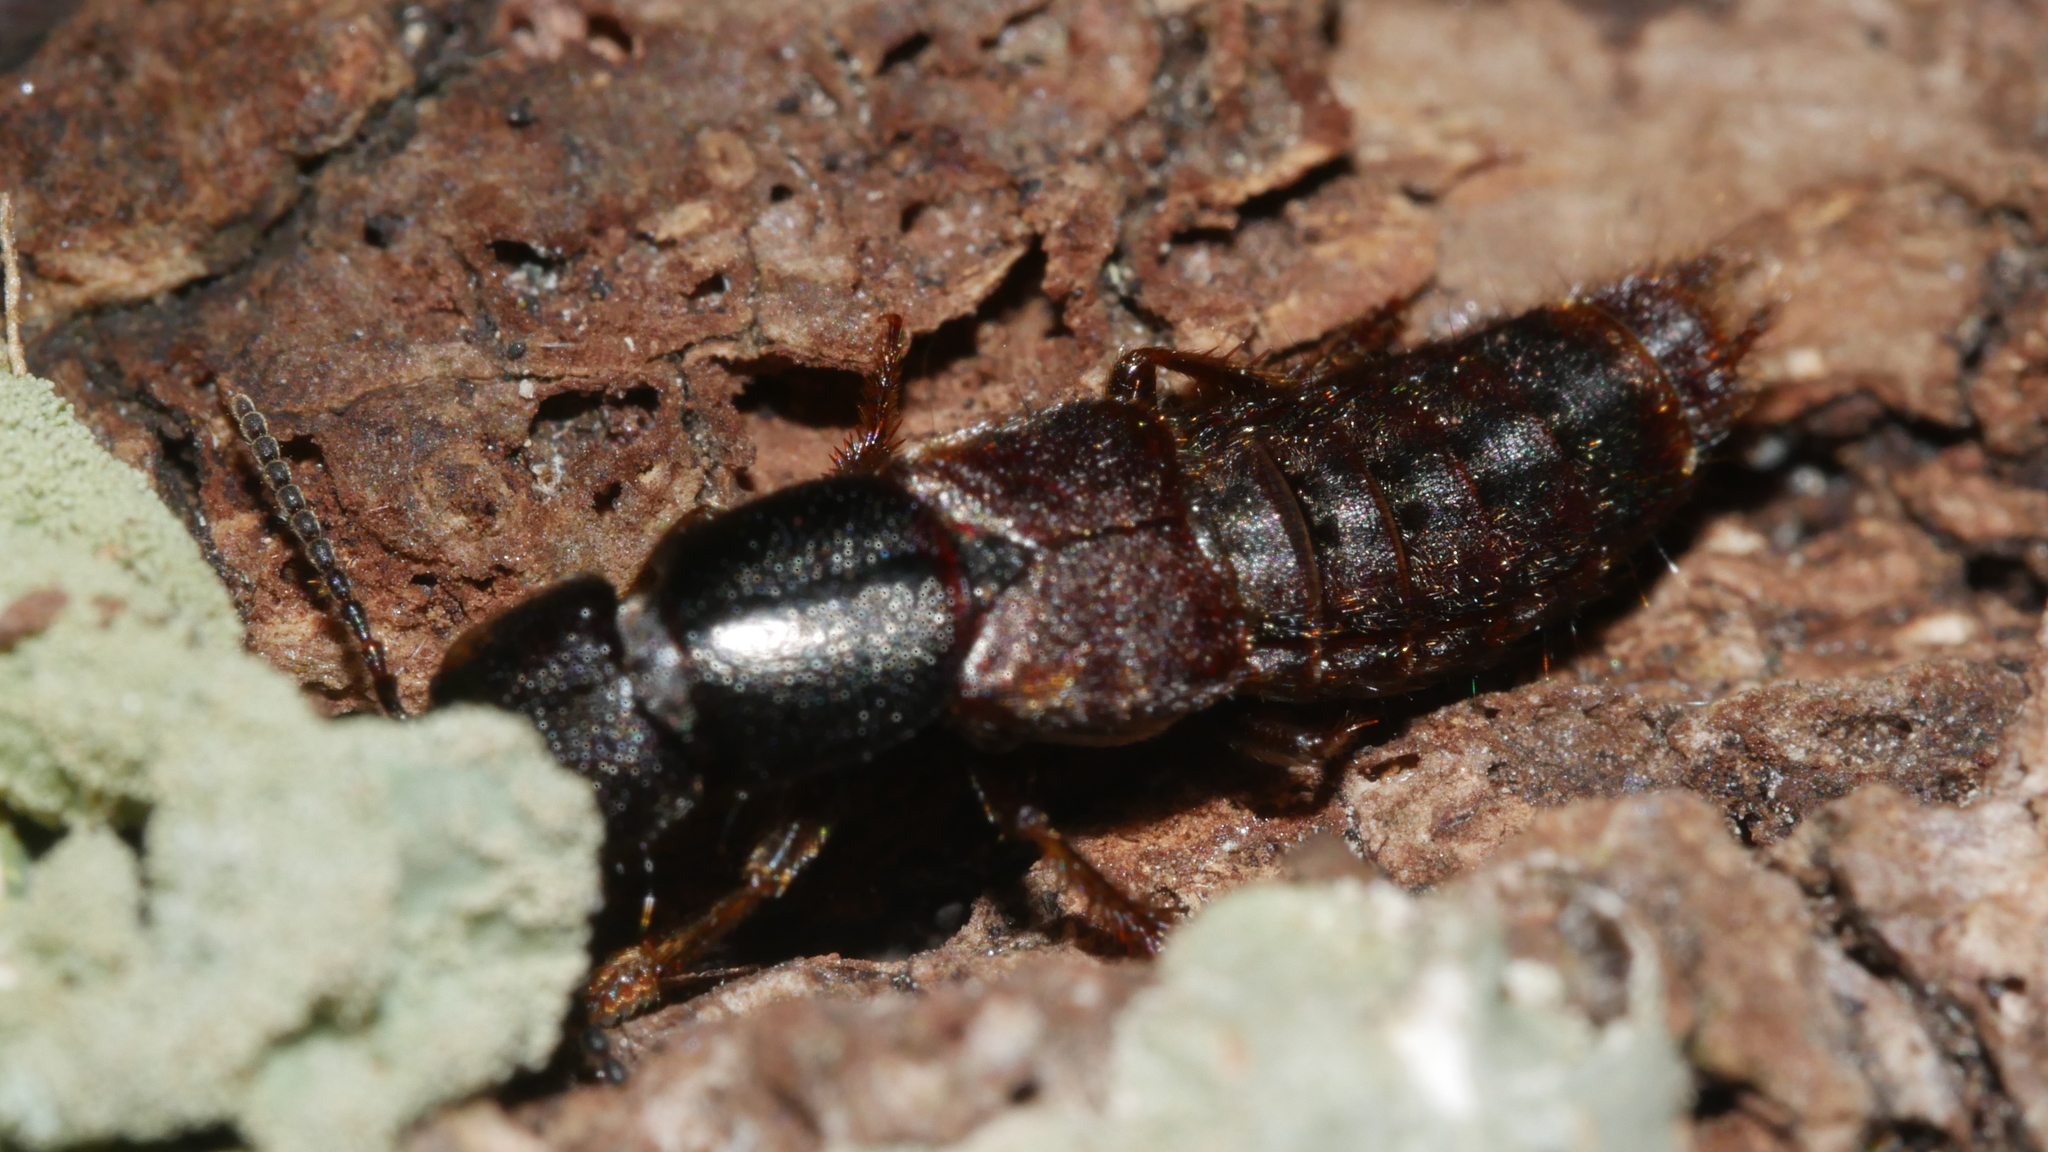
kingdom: Animalia
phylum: Arthropoda
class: Insecta
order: Coleoptera
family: Staphylinidae
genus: Platydracus
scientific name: Platydracus
